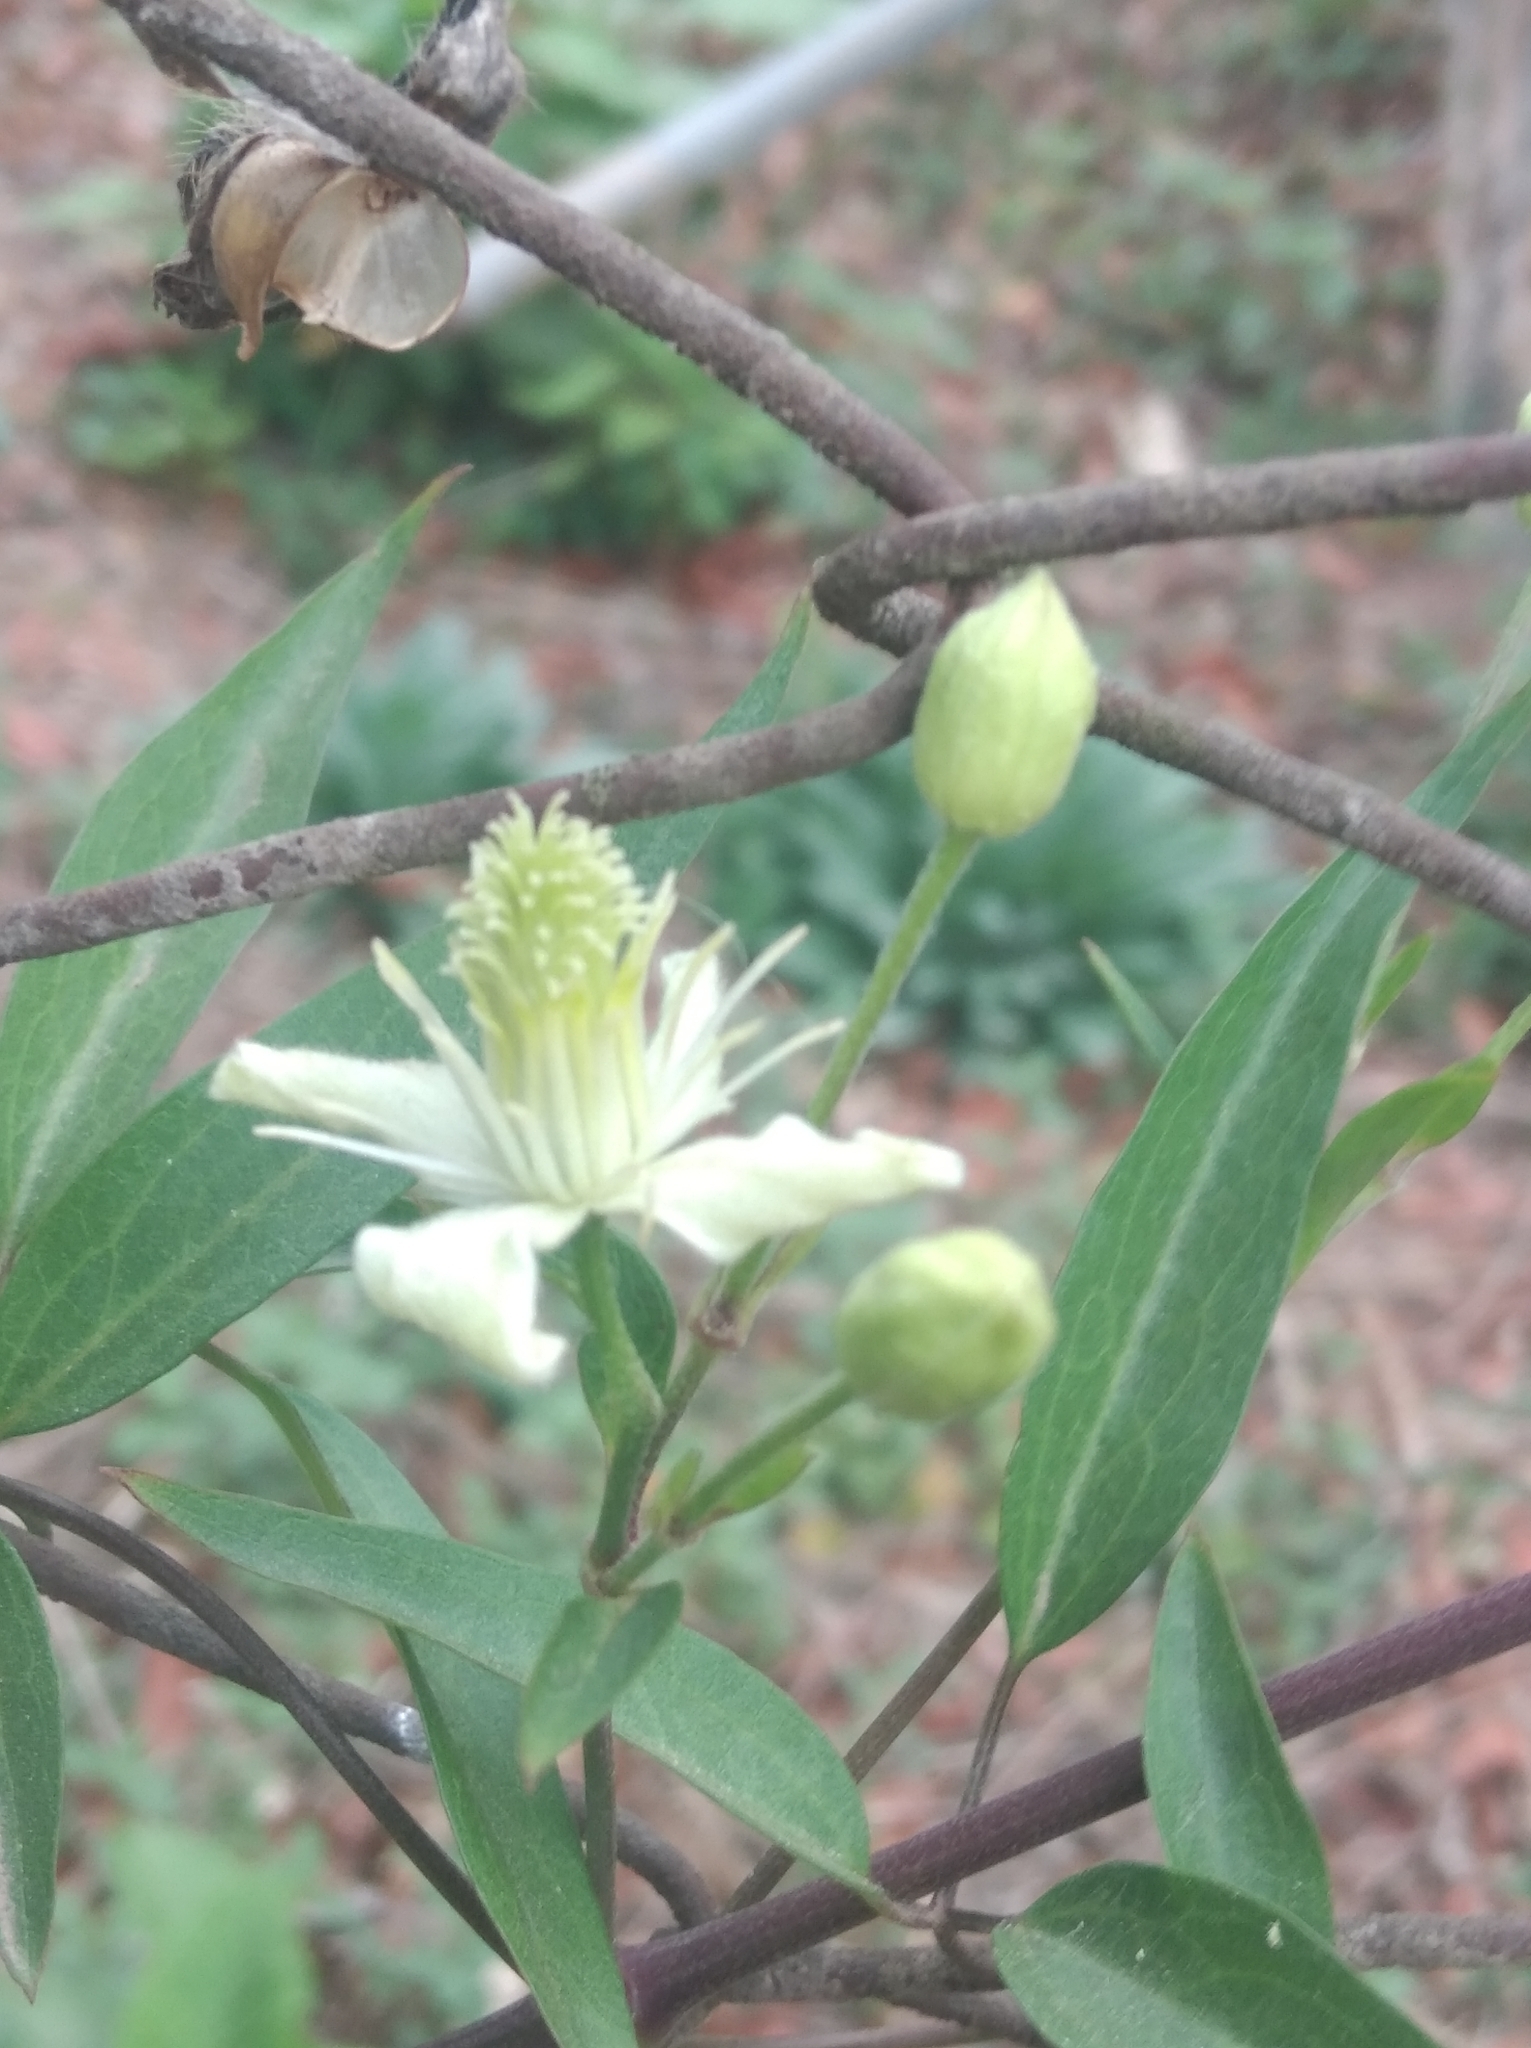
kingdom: Plantae
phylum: Tracheophyta
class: Magnoliopsida
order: Ranunculales
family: Ranunculaceae
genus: Clematis
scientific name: Clematis montevidensis
